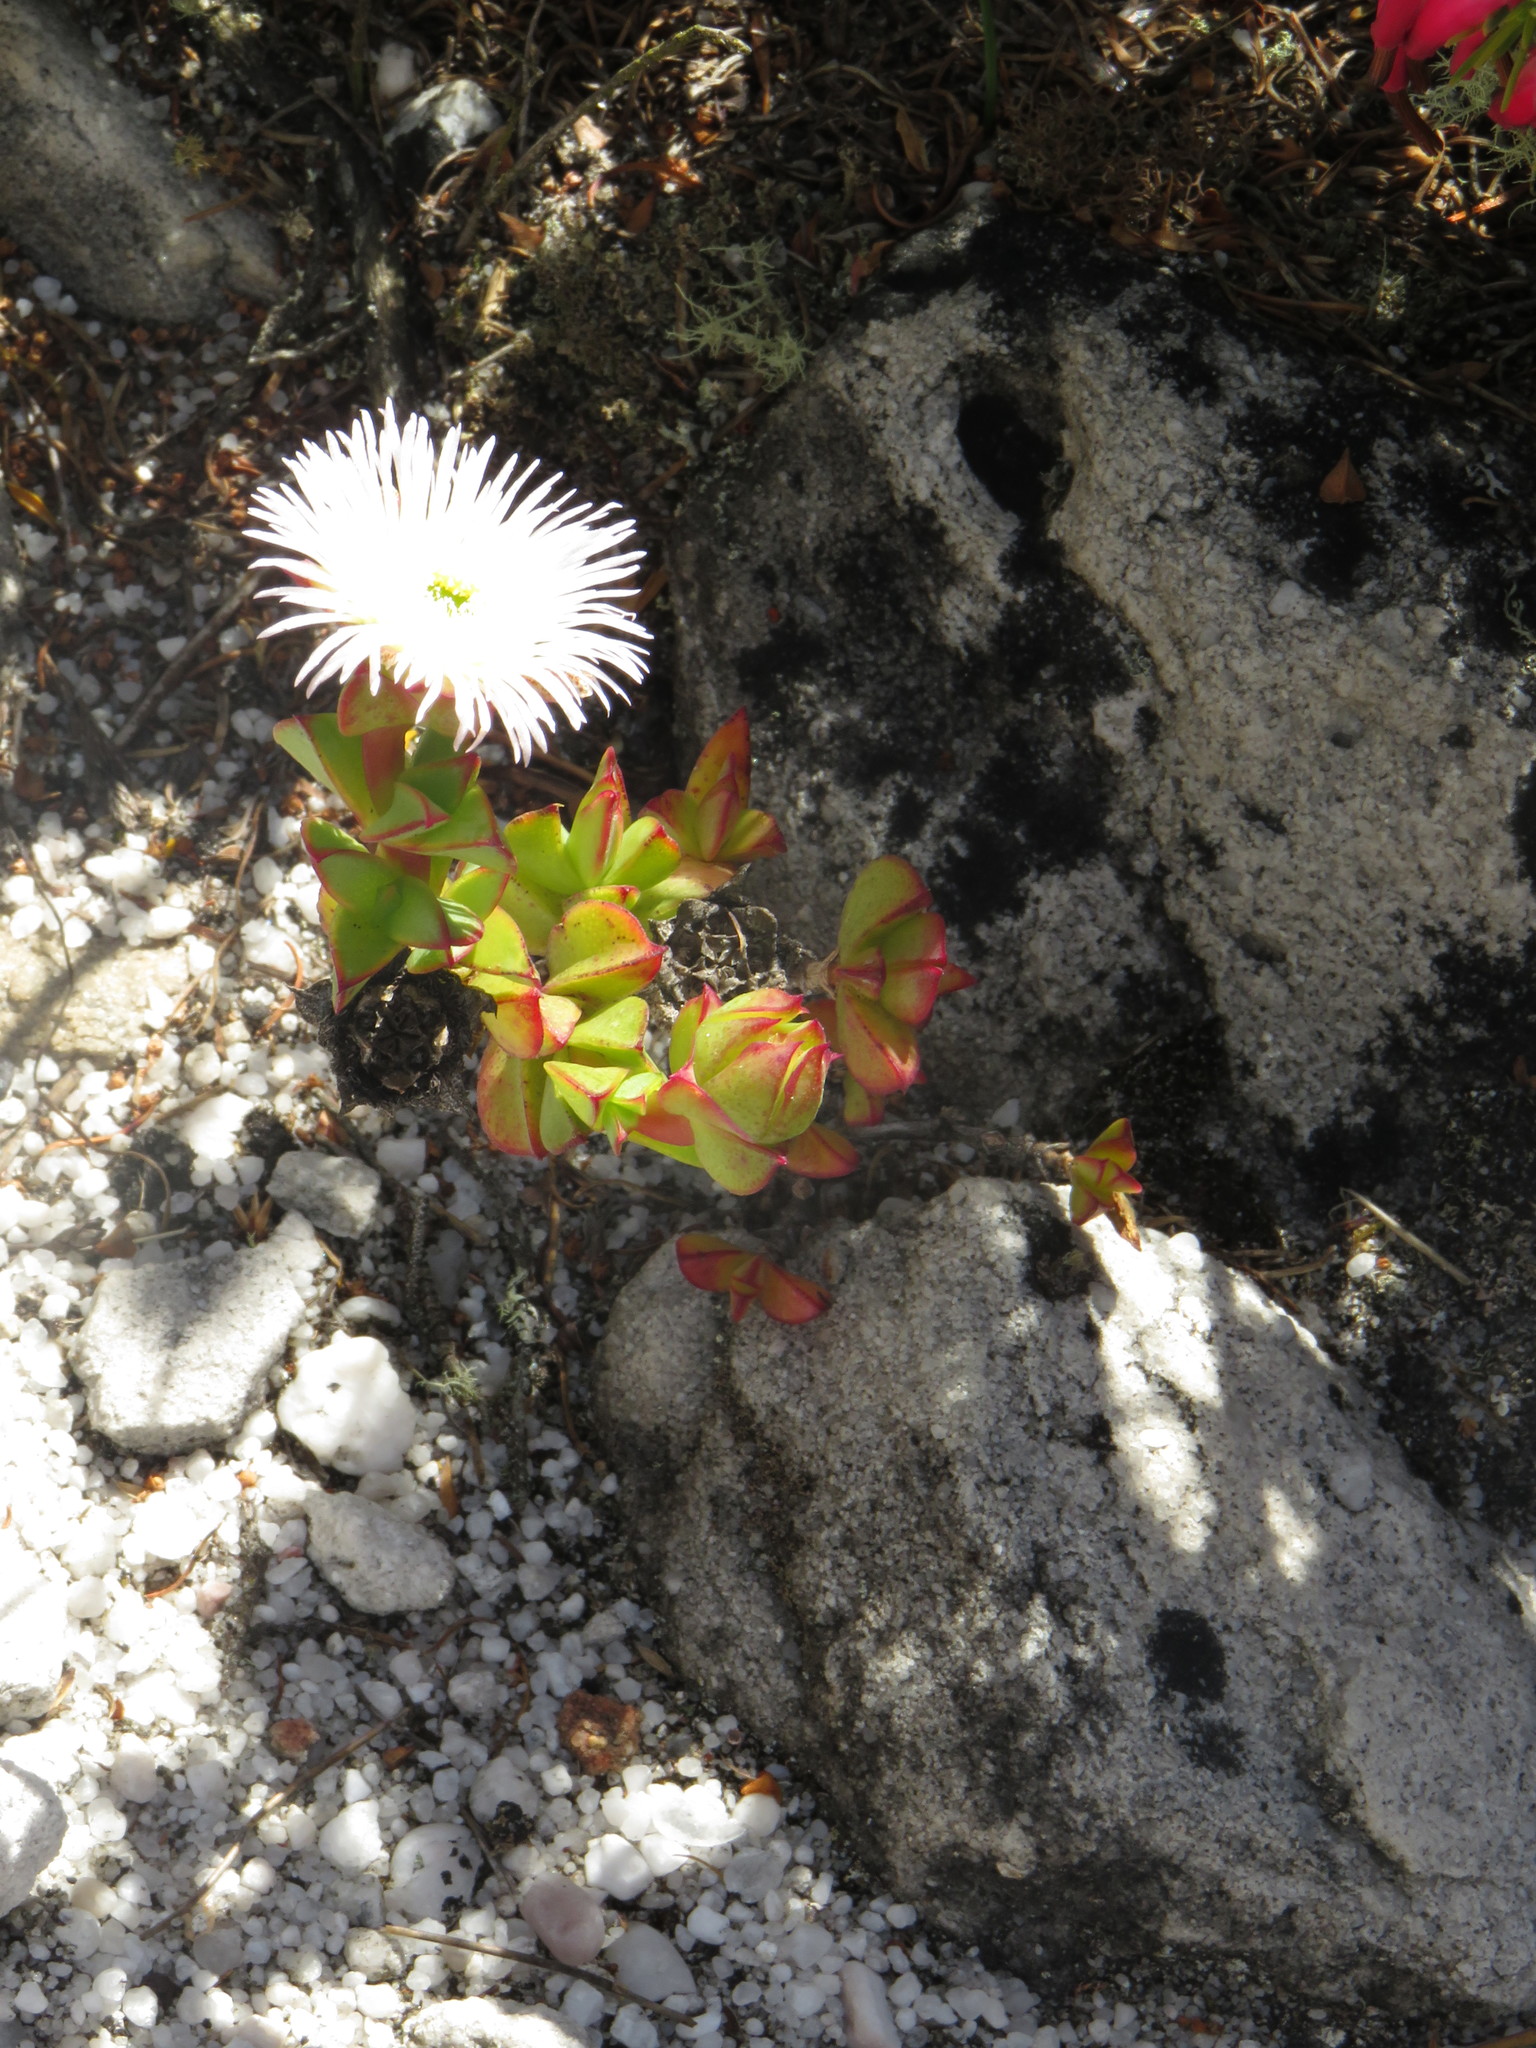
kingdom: Plantae
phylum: Tracheophyta
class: Magnoliopsida
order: Caryophyllales
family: Aizoaceae
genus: Erepsia
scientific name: Erepsia forficata
